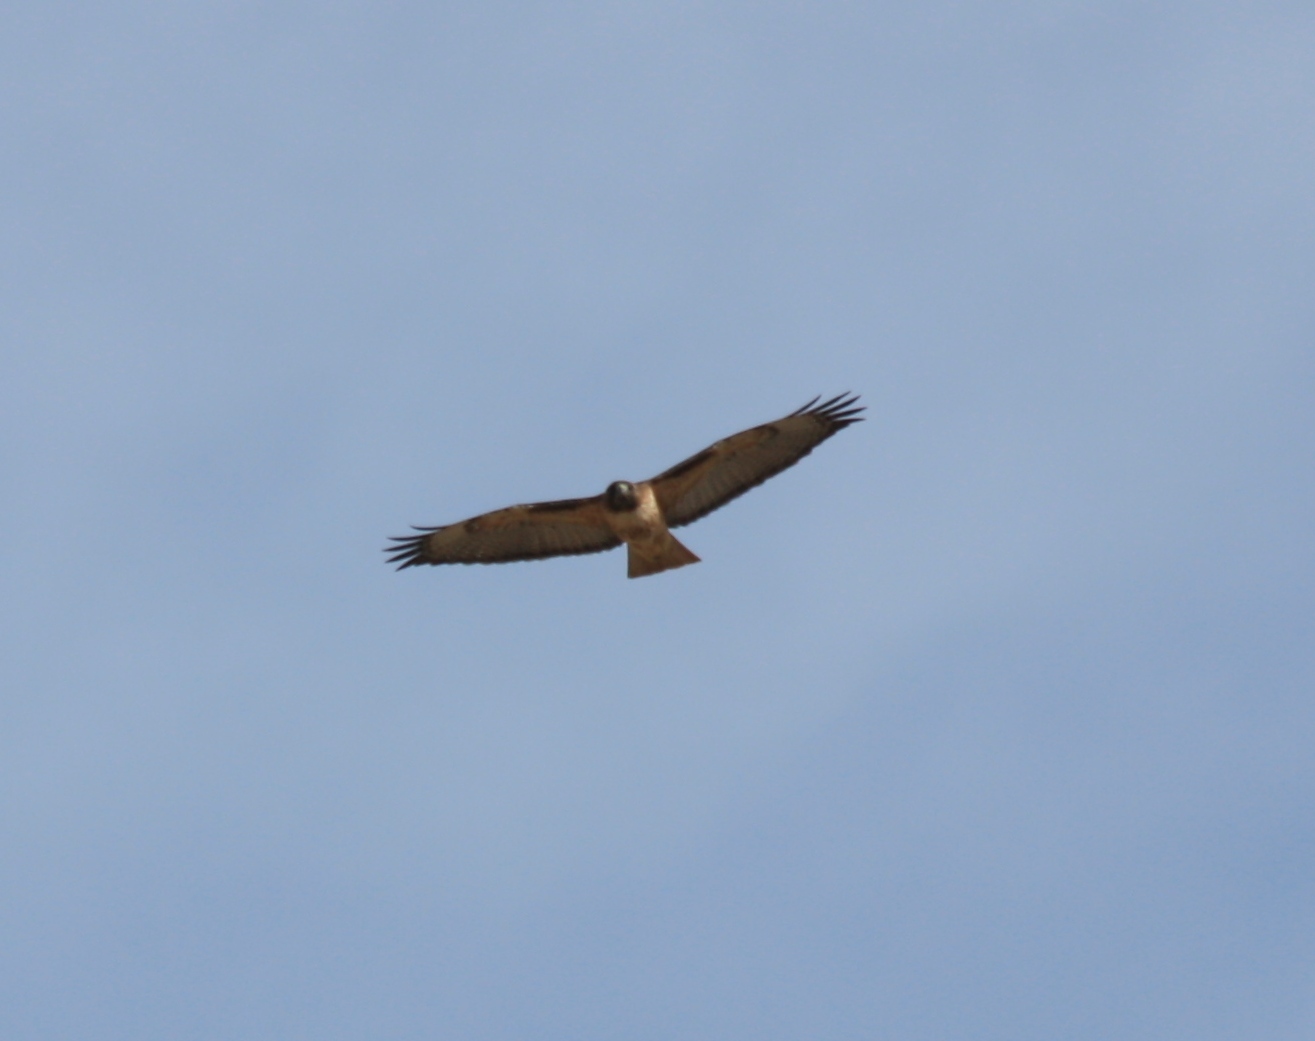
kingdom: Animalia
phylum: Chordata
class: Aves
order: Accipitriformes
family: Accipitridae
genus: Buteo
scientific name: Buteo jamaicensis
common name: Red-tailed hawk
